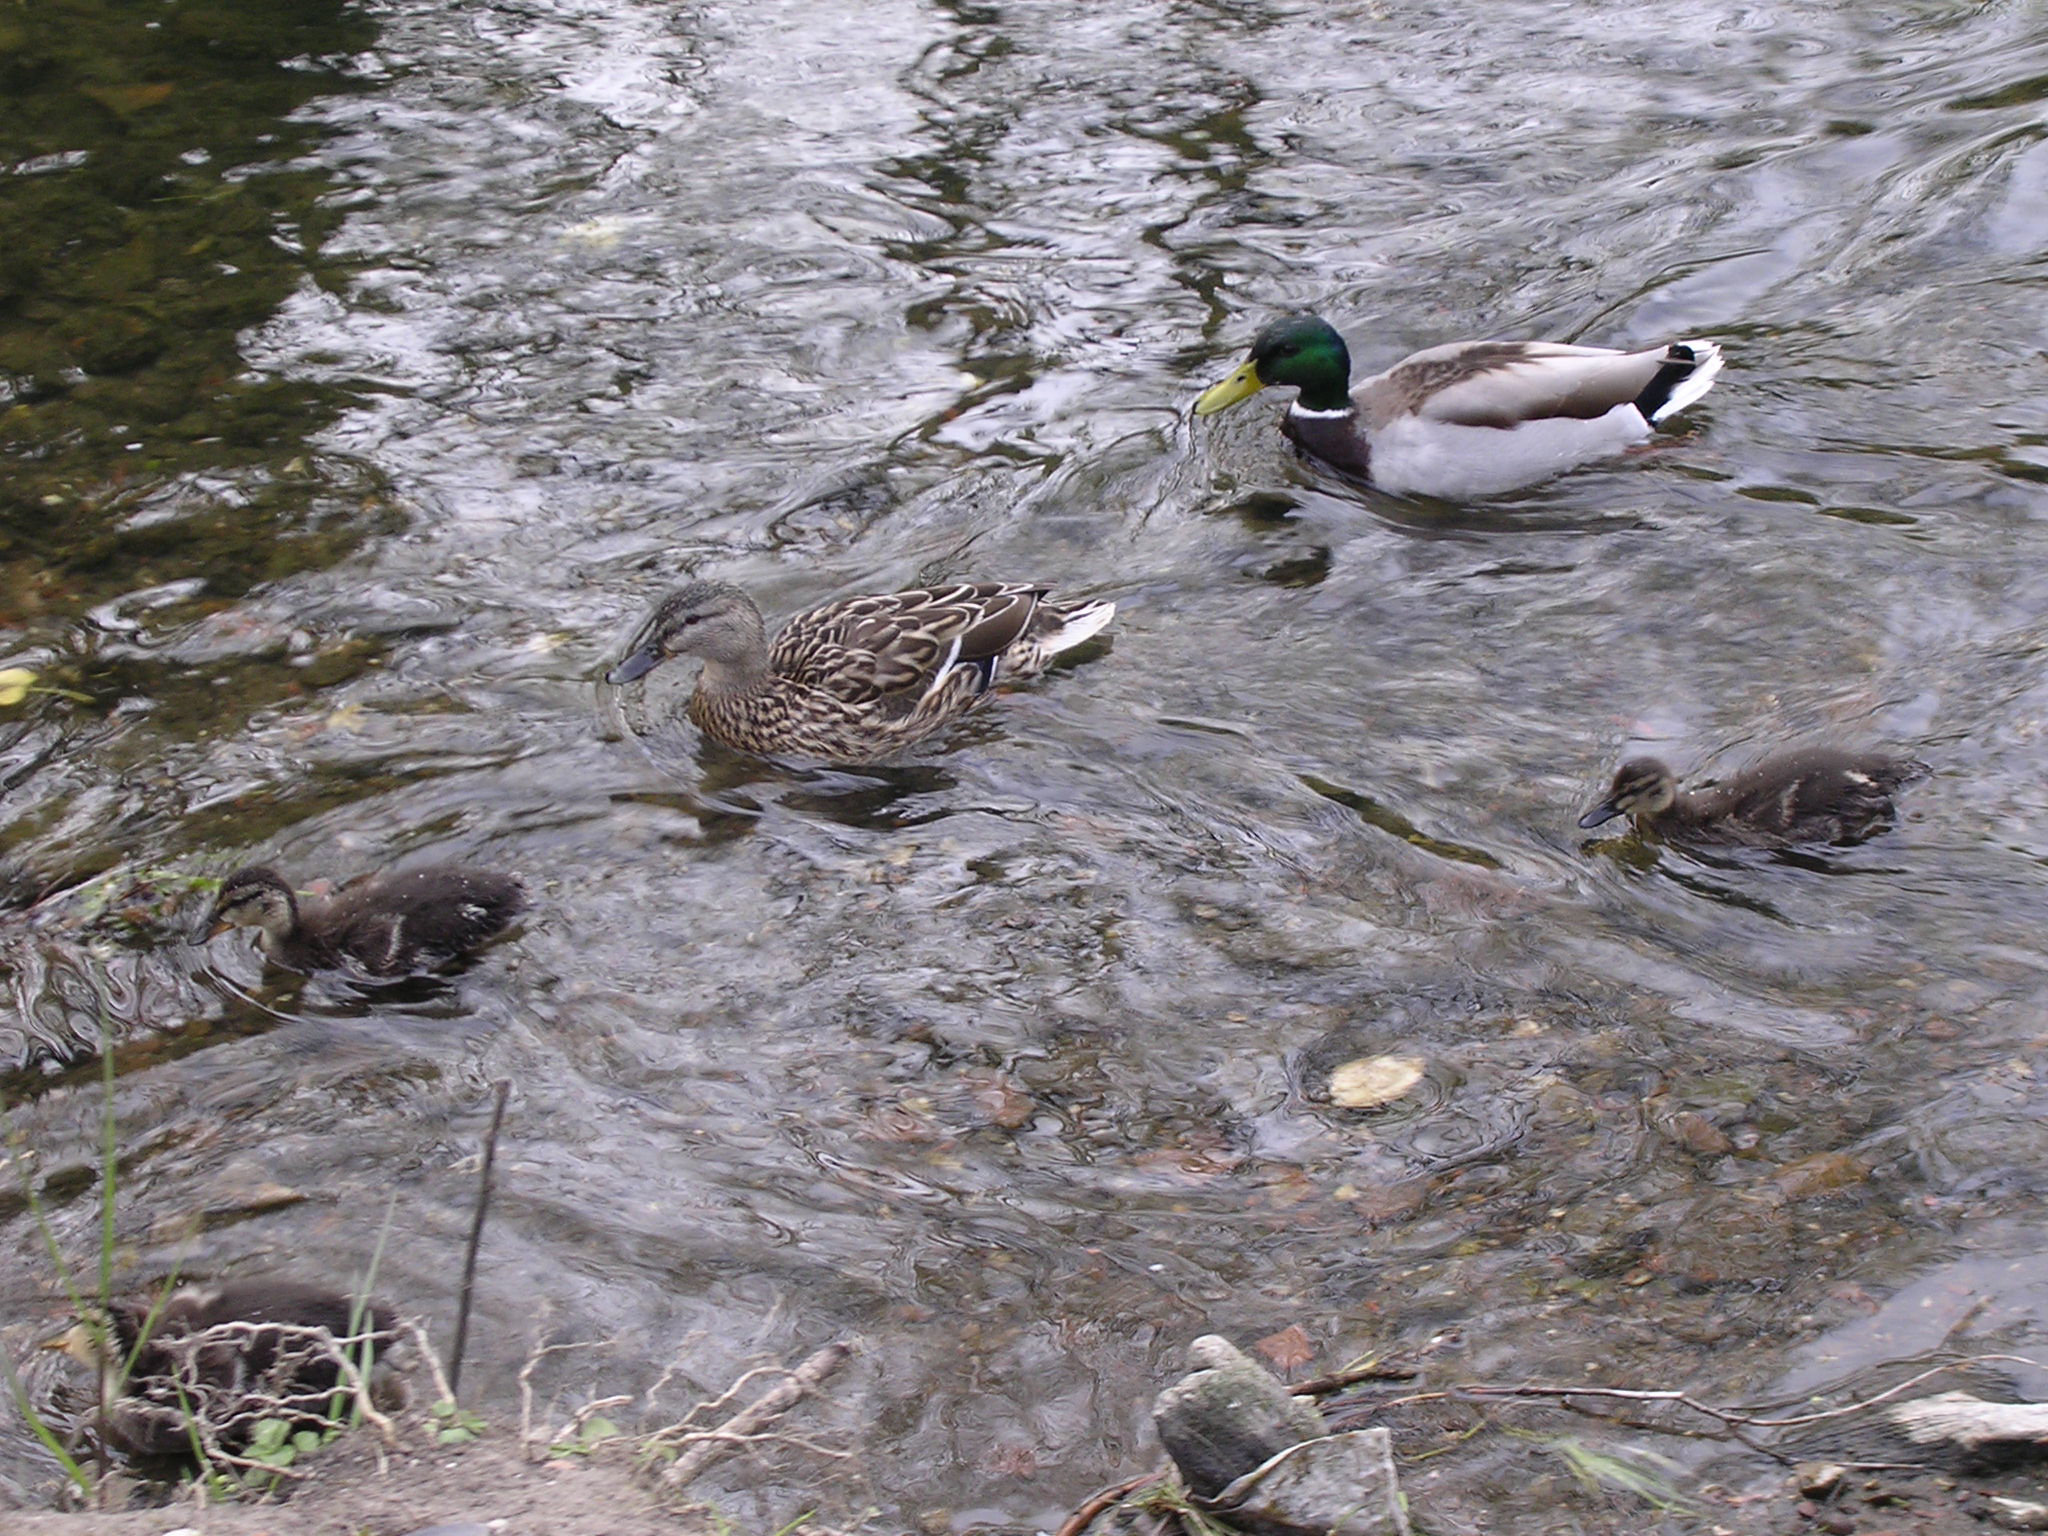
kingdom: Animalia
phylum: Chordata
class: Aves
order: Anseriformes
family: Anatidae
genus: Anas
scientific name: Anas platyrhynchos
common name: Mallard
